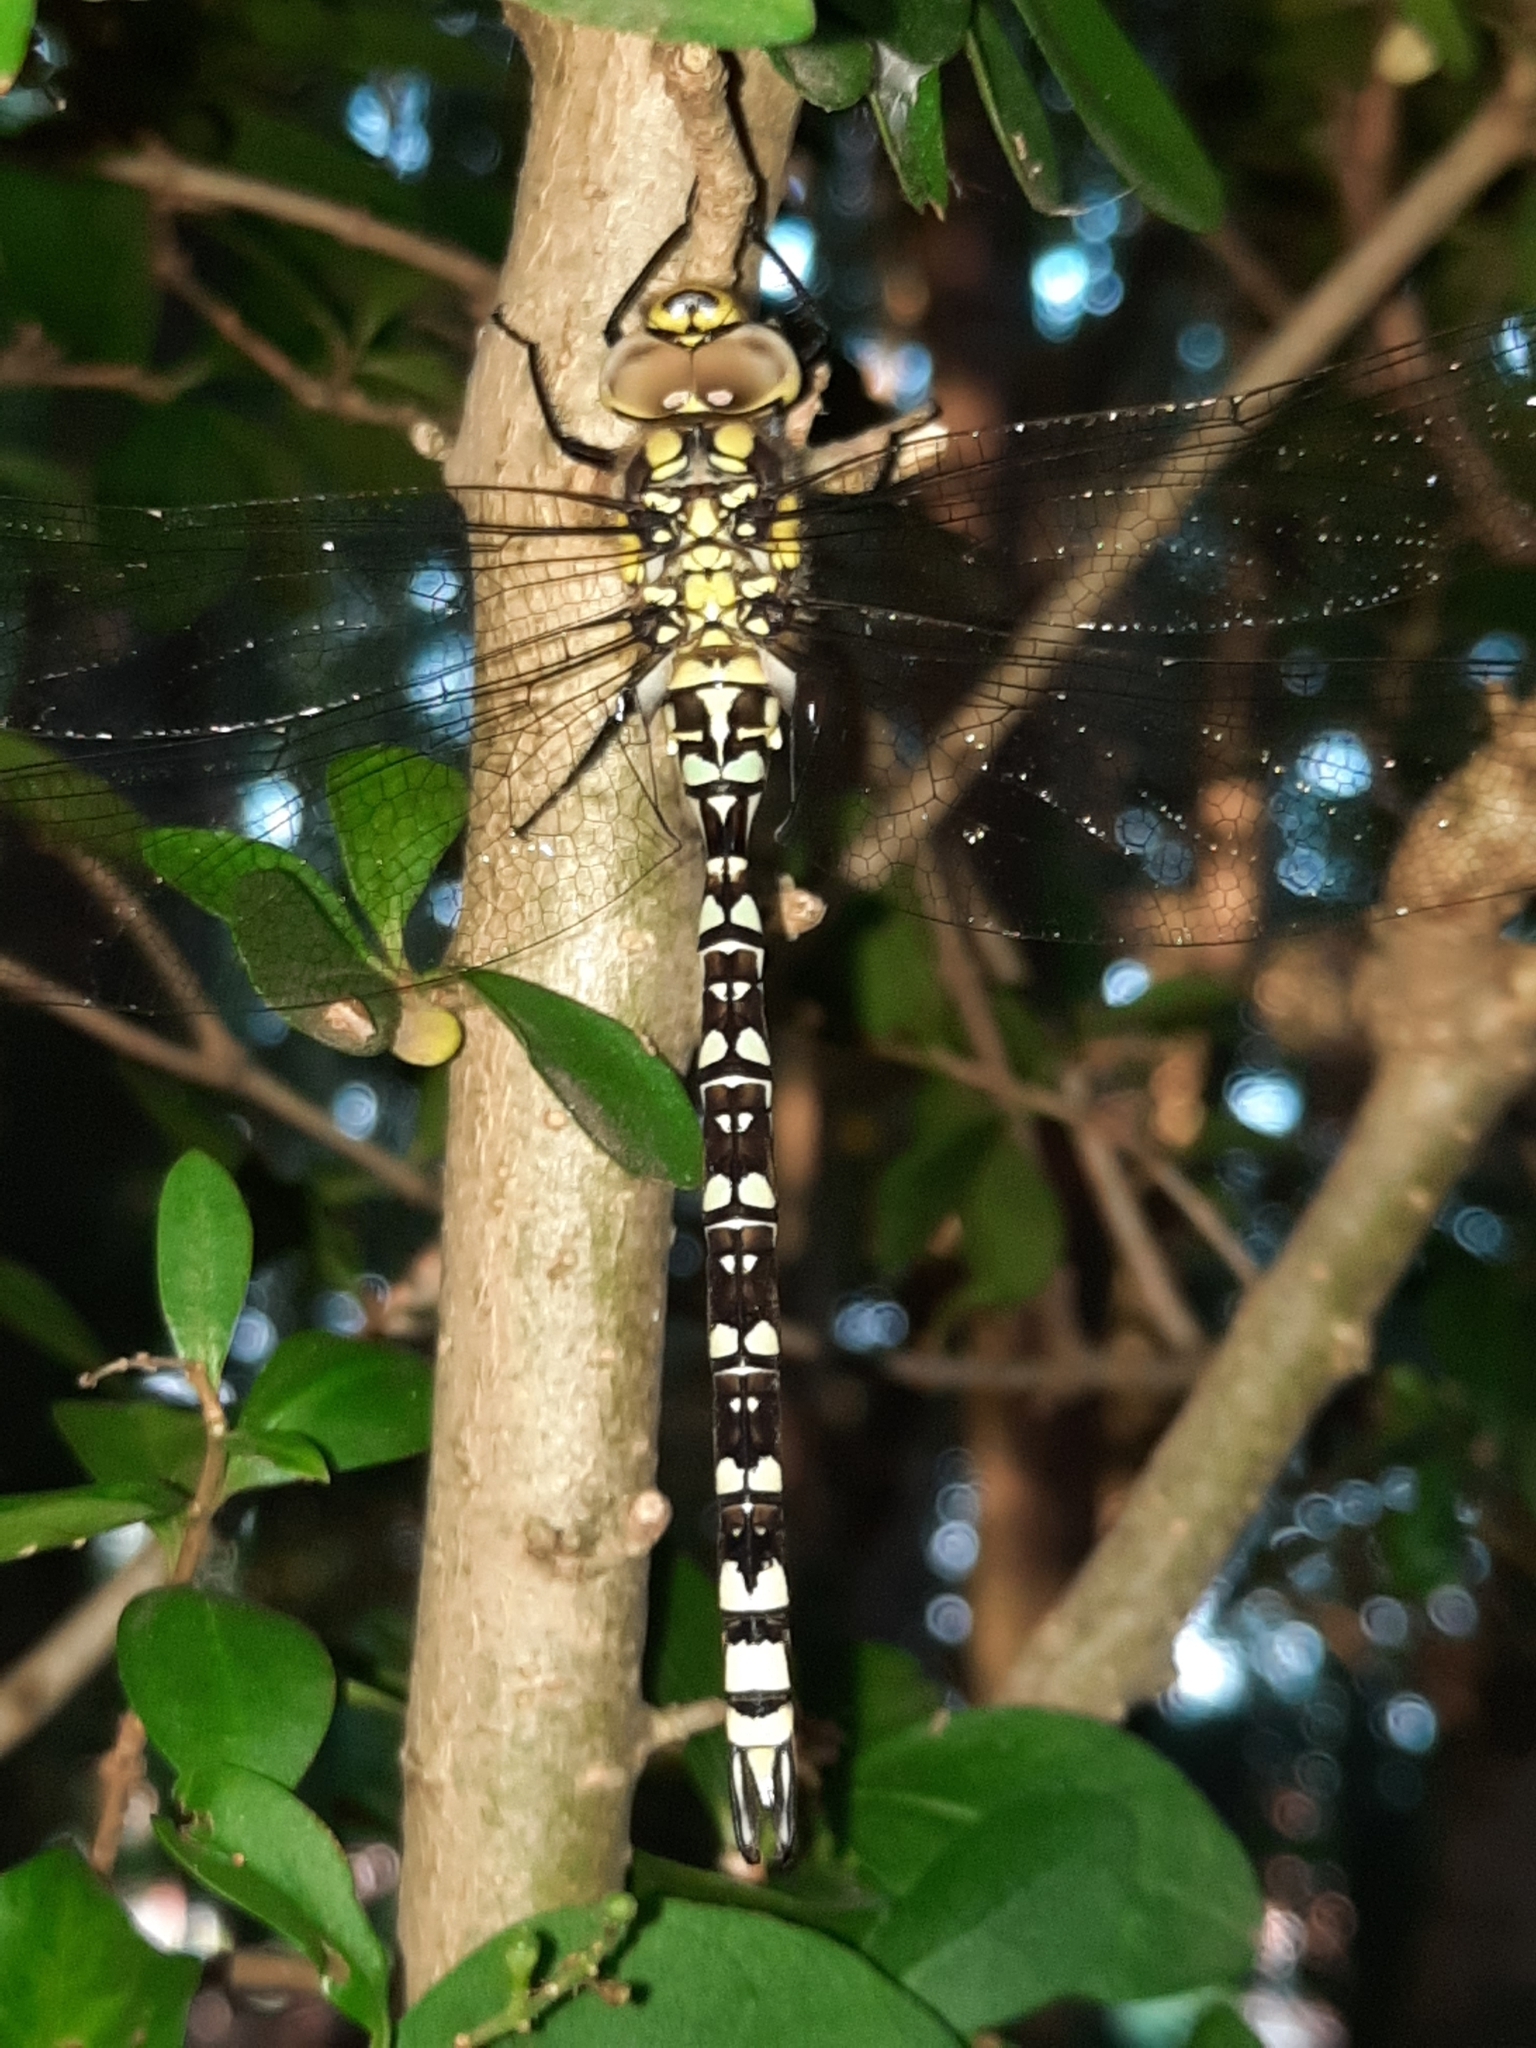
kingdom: Animalia
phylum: Arthropoda
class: Insecta
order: Odonata
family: Aeshnidae
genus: Aeshna
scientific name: Aeshna cyanea
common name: Southern hawker
